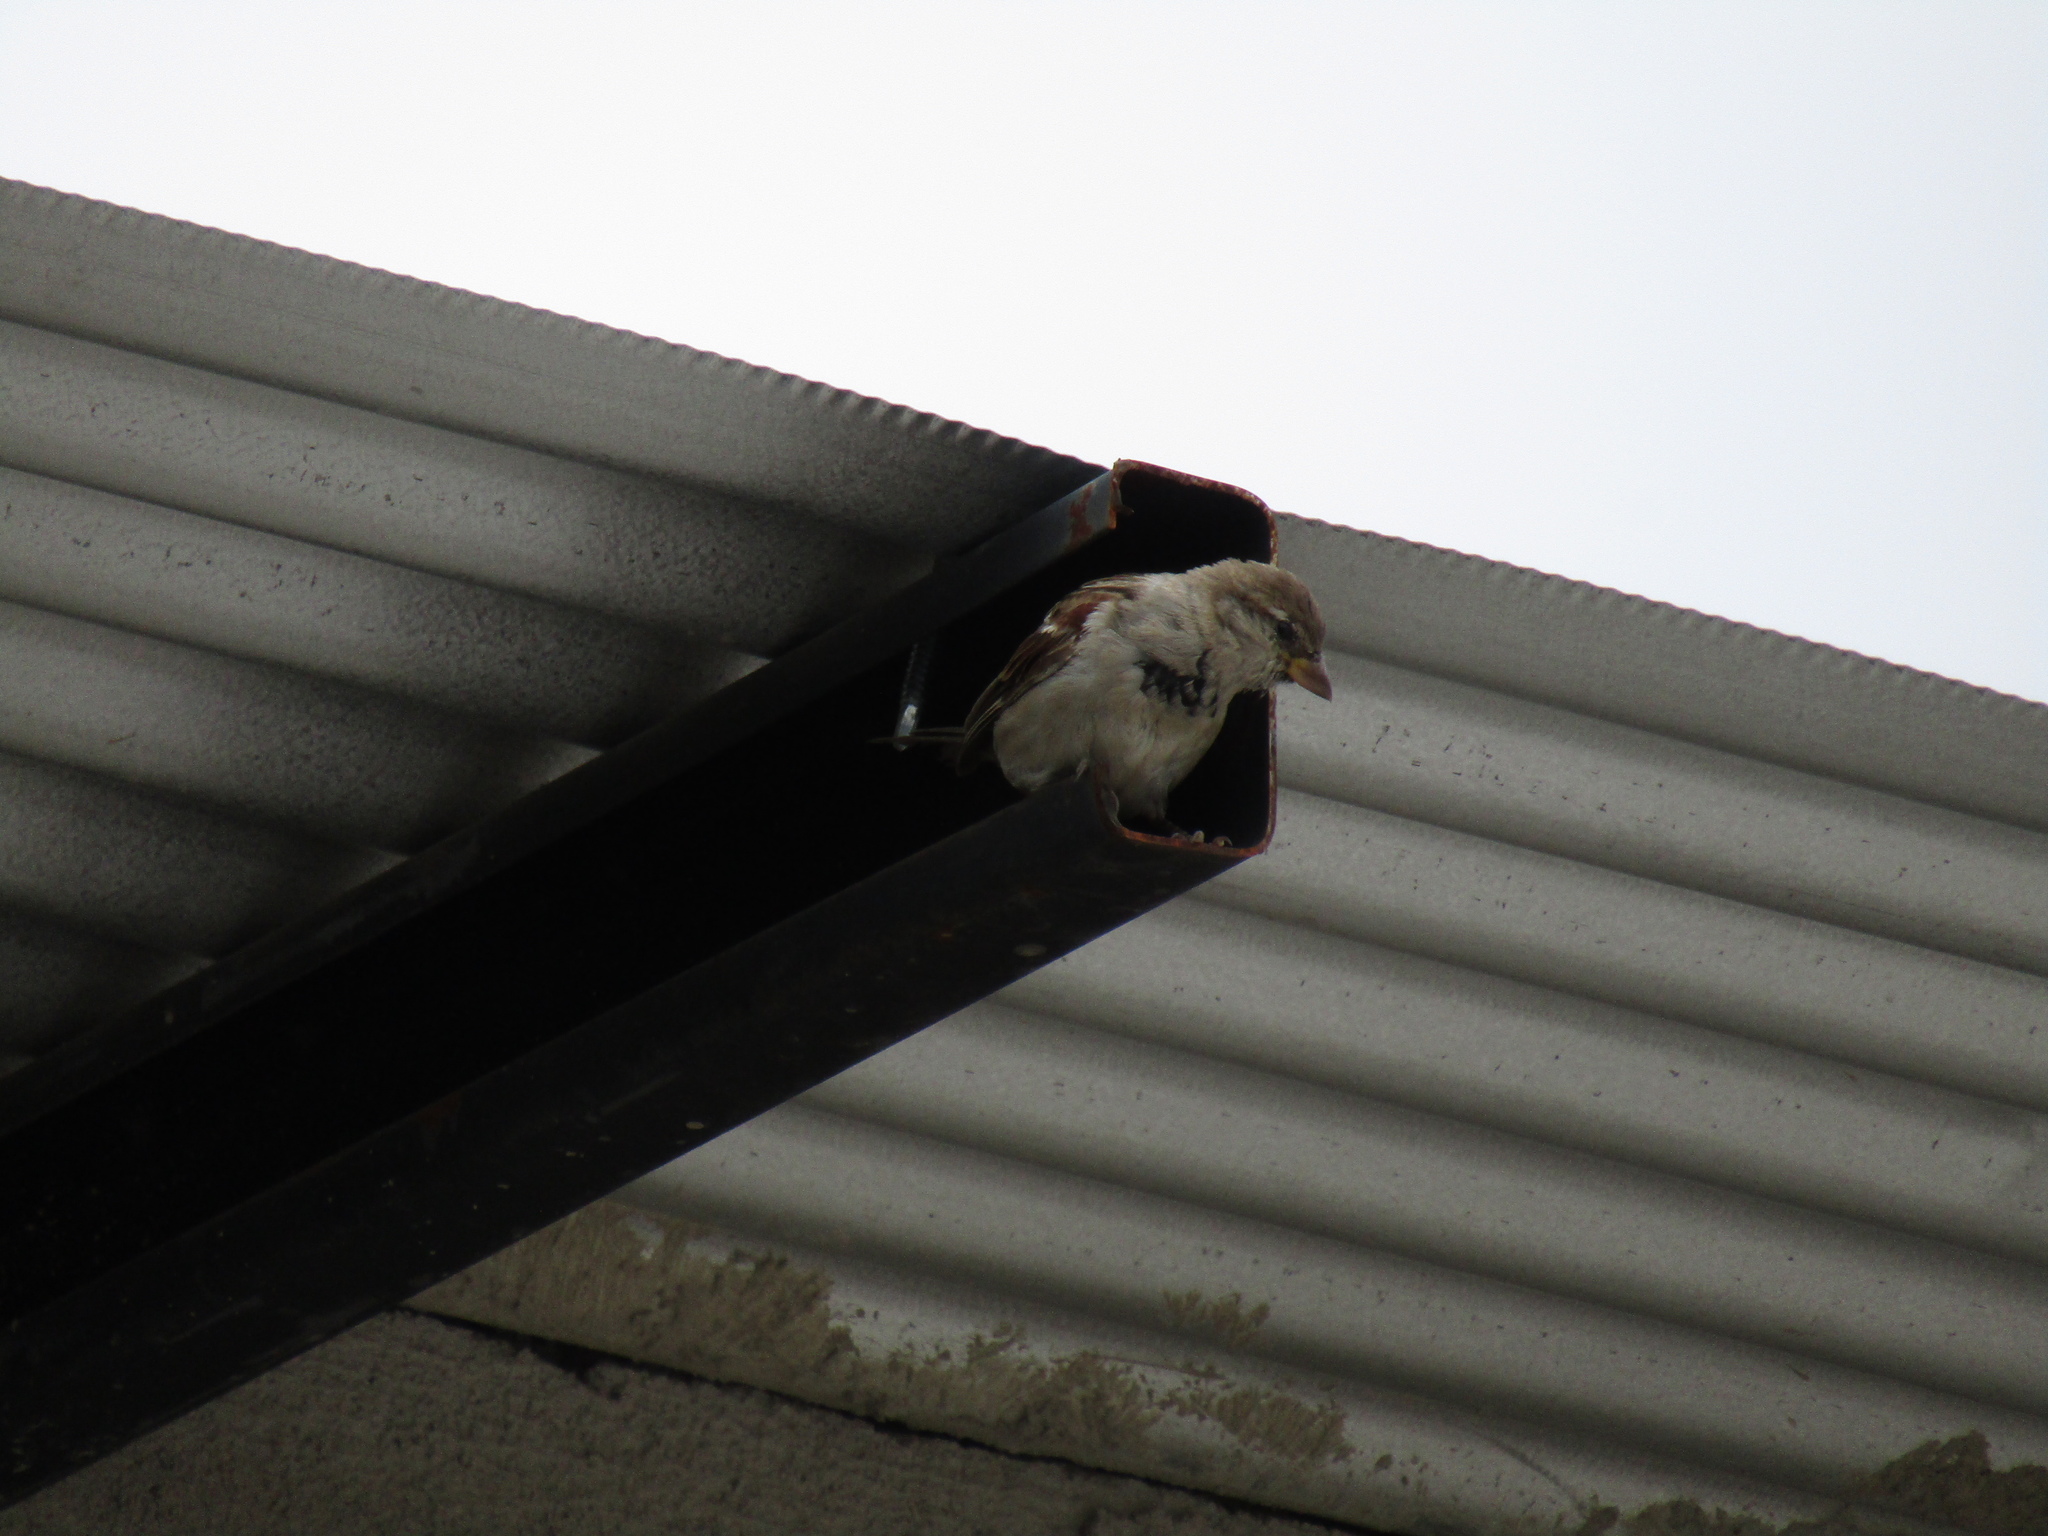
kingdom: Animalia
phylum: Chordata
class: Aves
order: Passeriformes
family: Passeridae
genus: Passer
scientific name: Passer domesticus
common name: House sparrow
